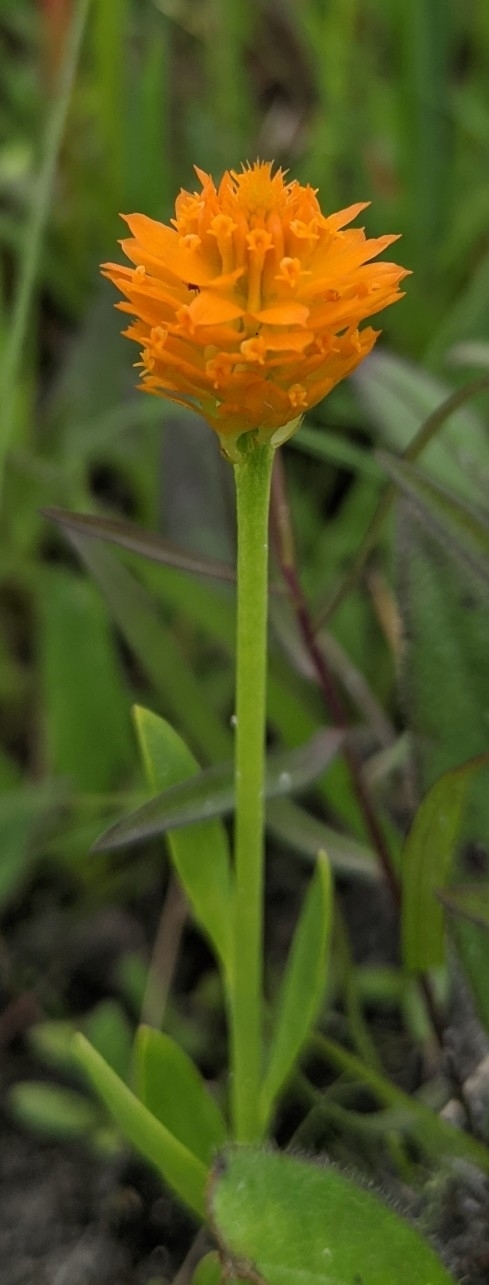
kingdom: Plantae
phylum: Tracheophyta
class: Magnoliopsida
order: Fabales
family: Polygalaceae
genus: Polygala
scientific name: Polygala lutea
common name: Orange milkwort
